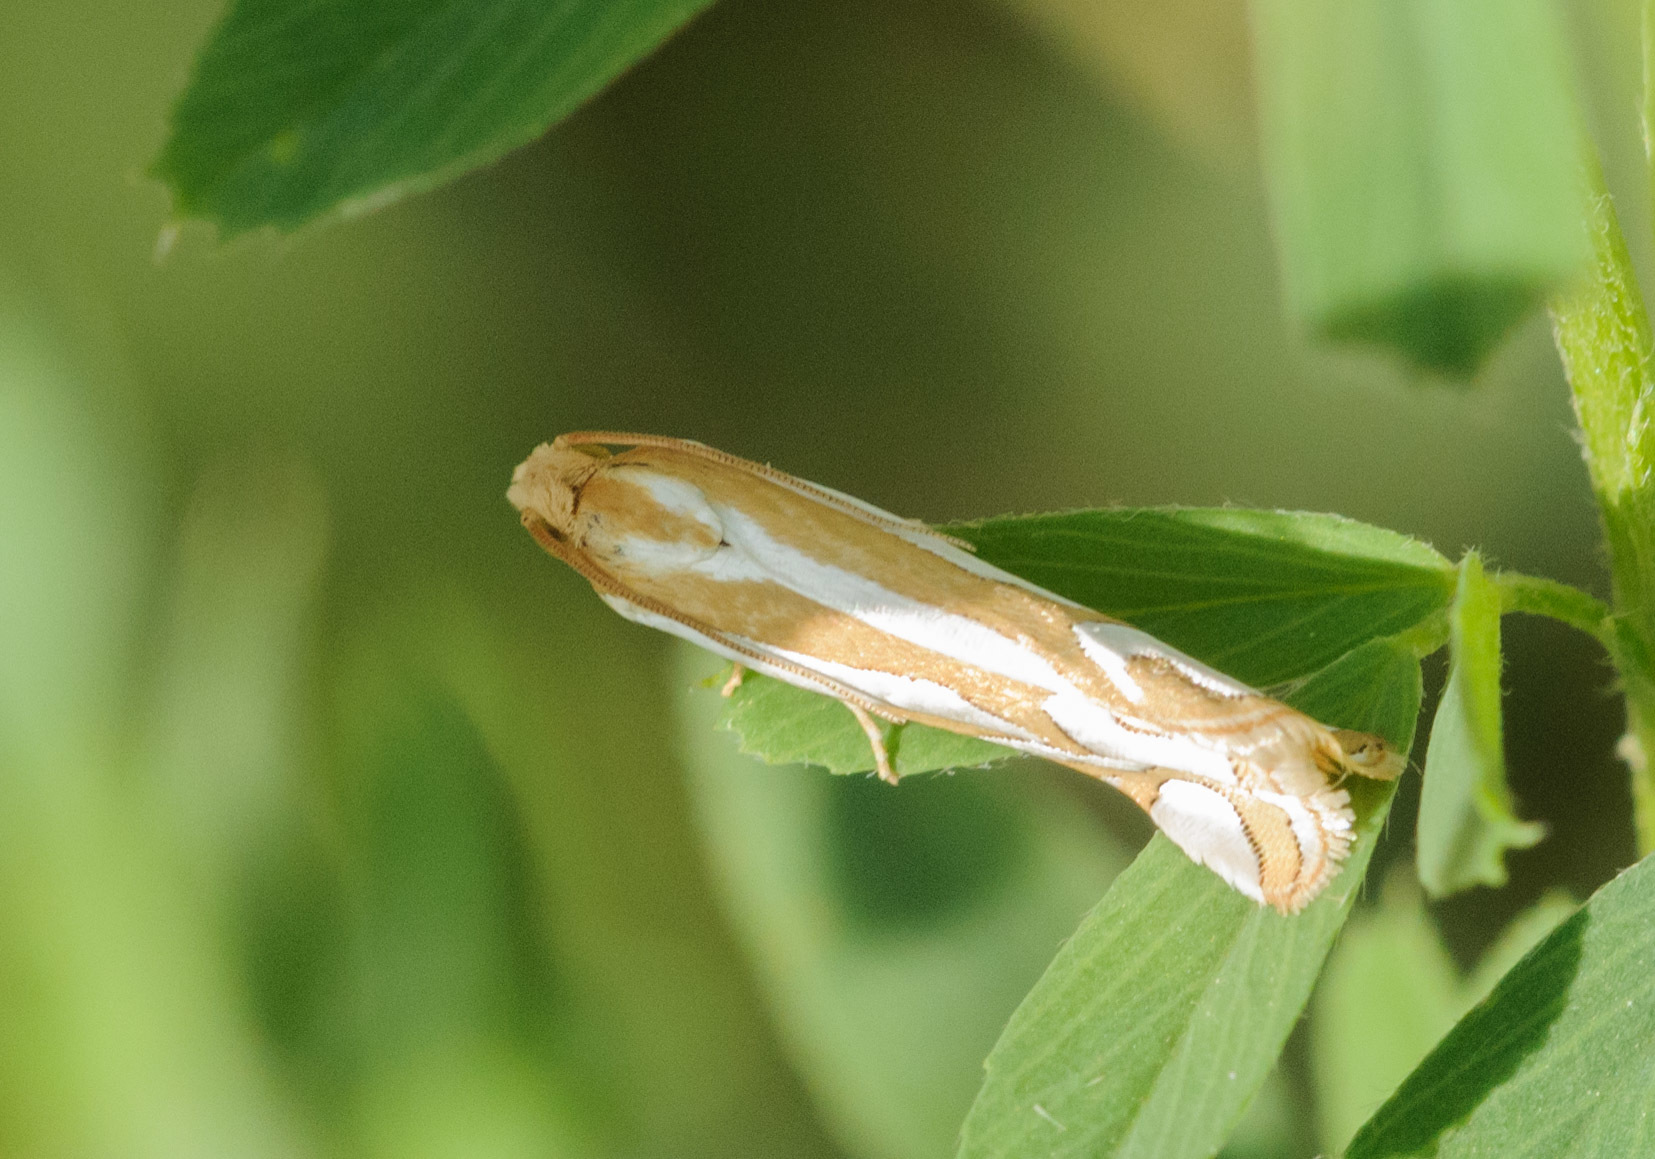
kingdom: Animalia
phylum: Arthropoda
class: Insecta
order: Lepidoptera
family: Tortricidae
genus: Pelochrista
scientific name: Pelochrista ridingsana
